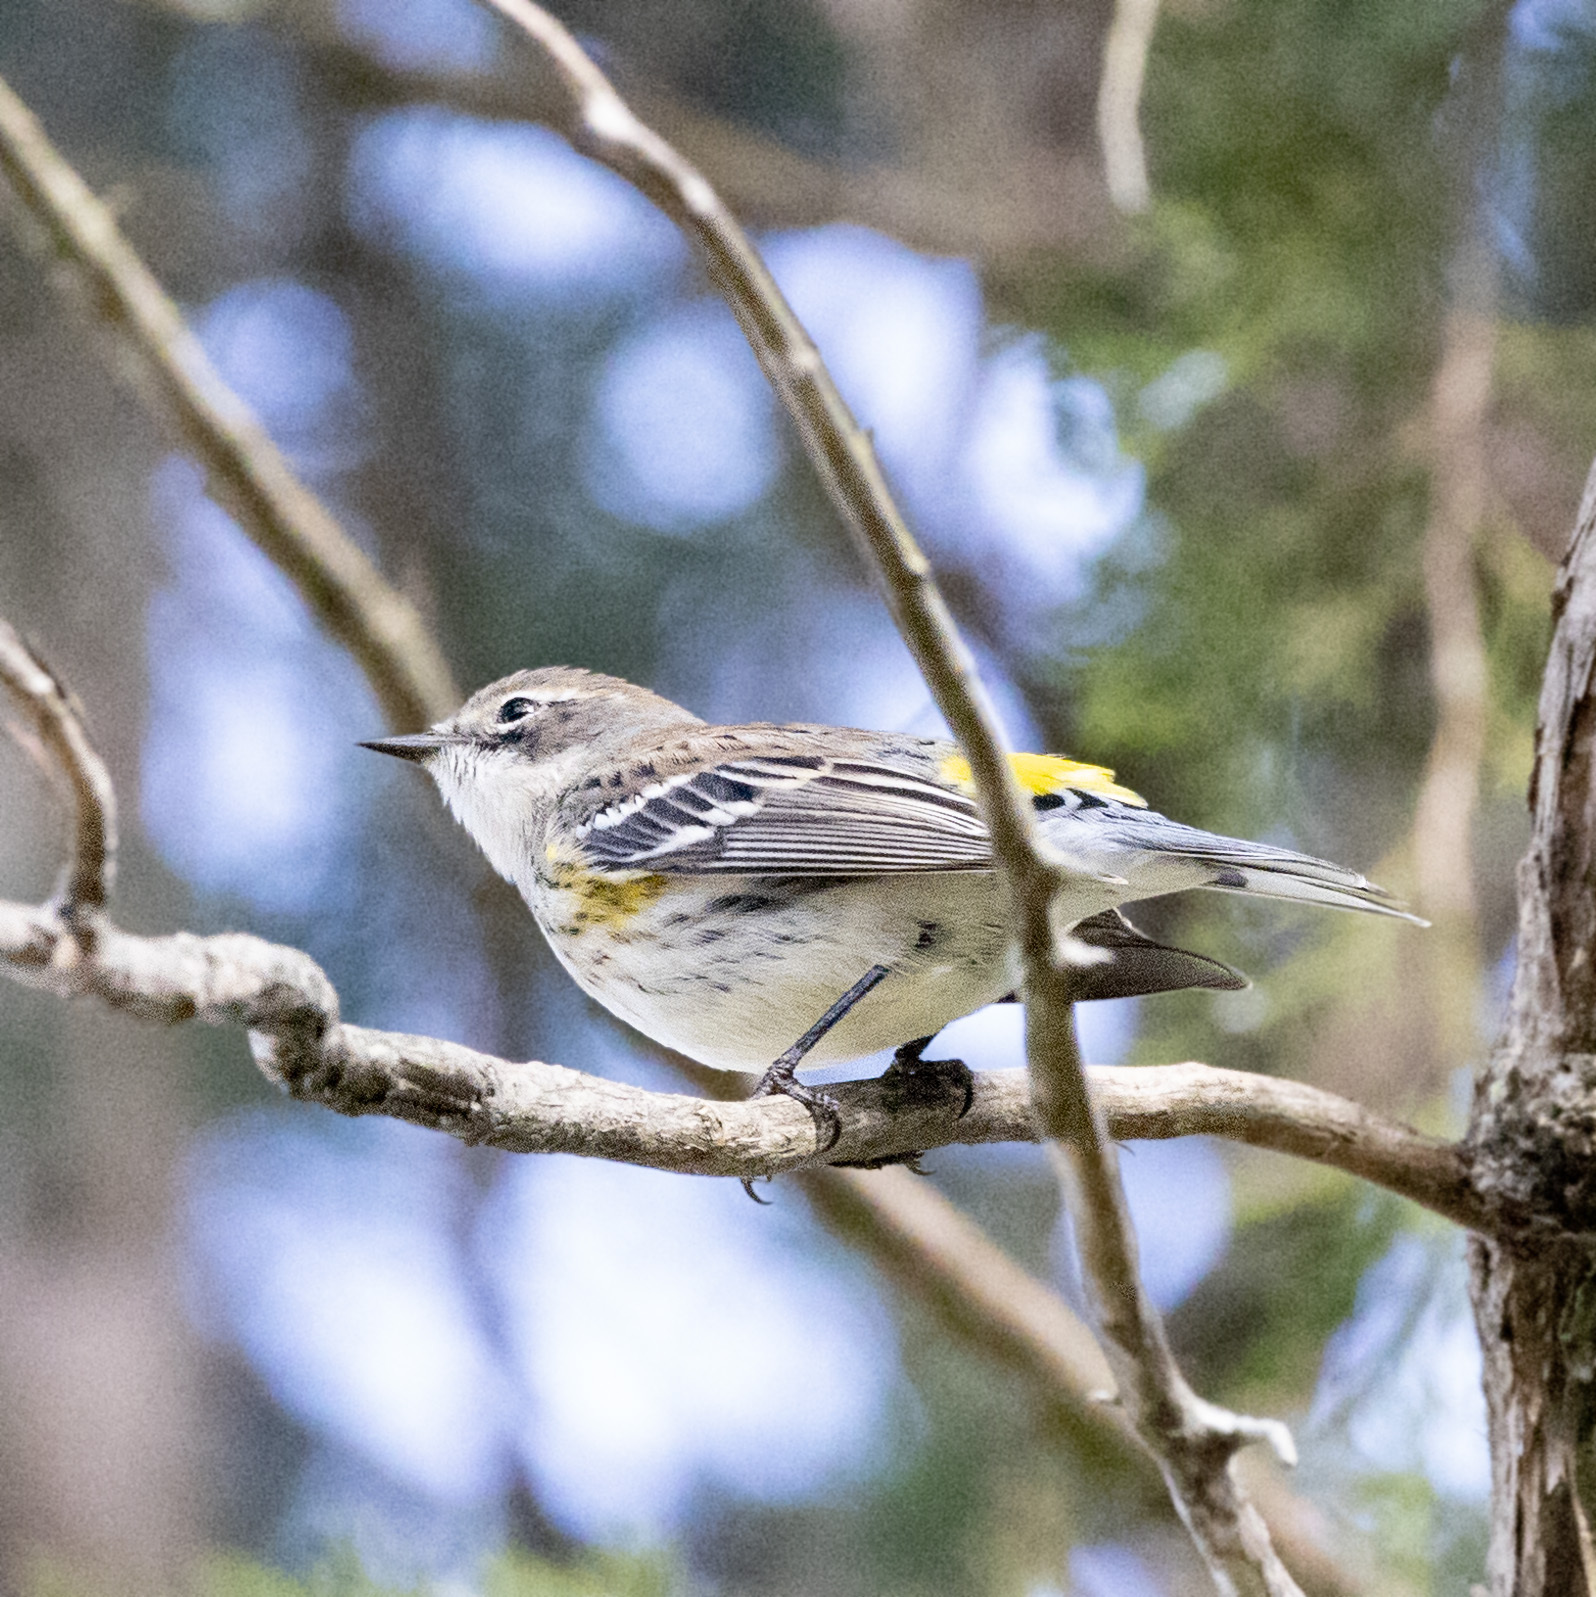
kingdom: Animalia
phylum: Chordata
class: Aves
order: Passeriformes
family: Parulidae
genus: Setophaga
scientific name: Setophaga coronata
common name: Myrtle warbler
